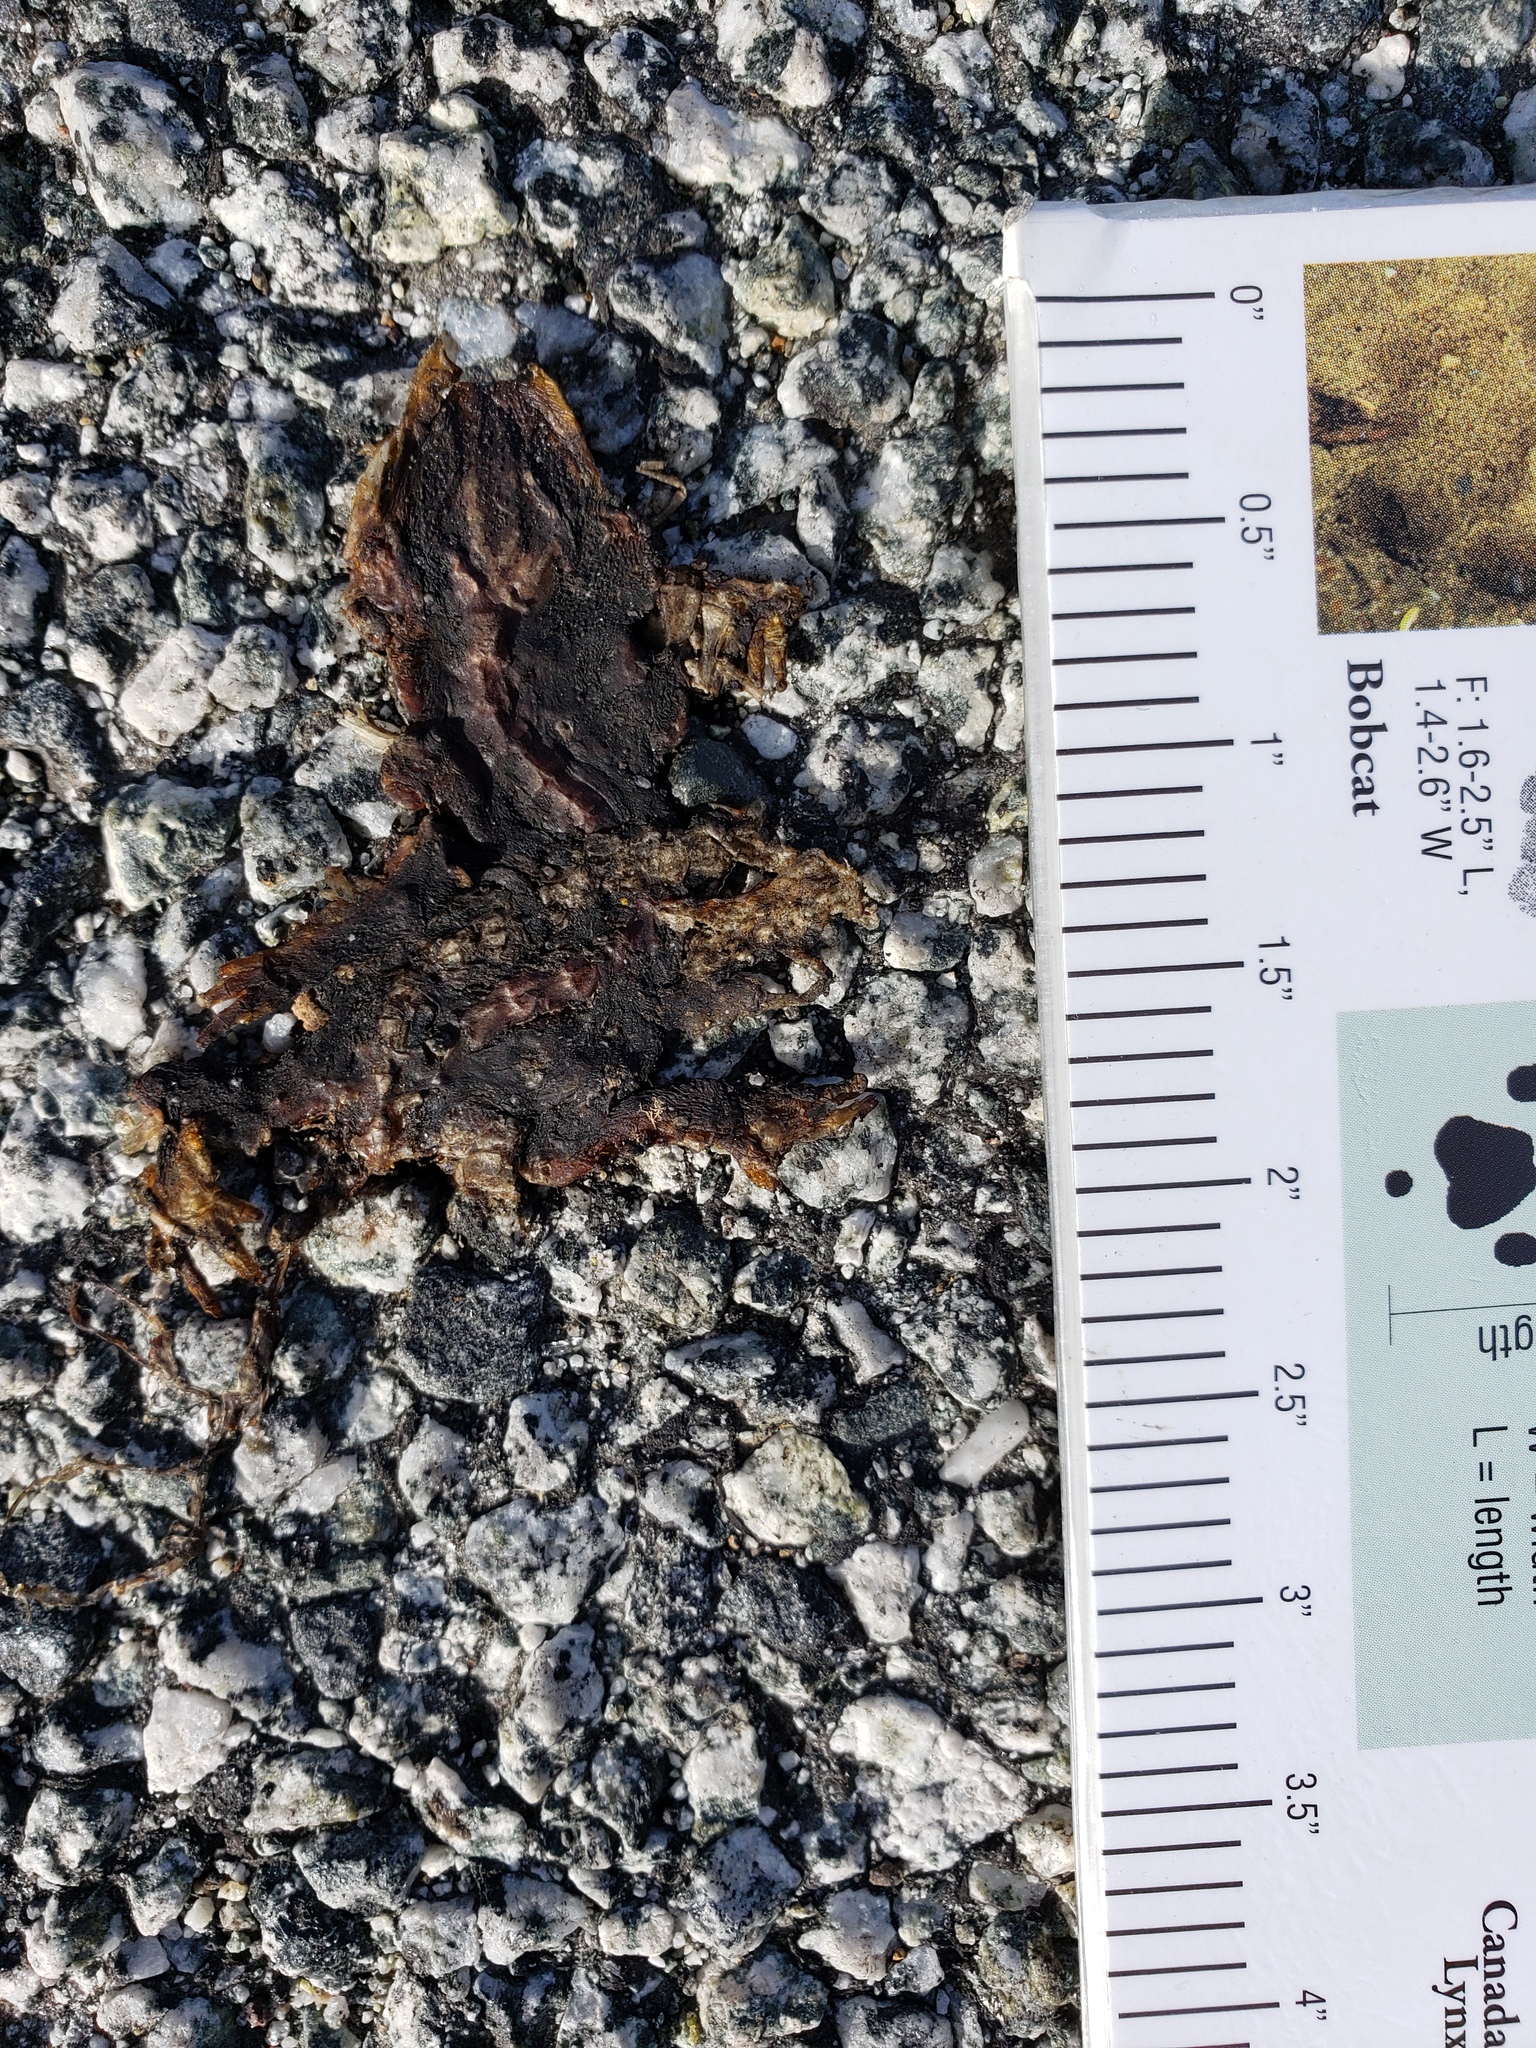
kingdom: Animalia
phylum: Chordata
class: Amphibia
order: Caudata
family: Salamandridae
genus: Taricha
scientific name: Taricha
